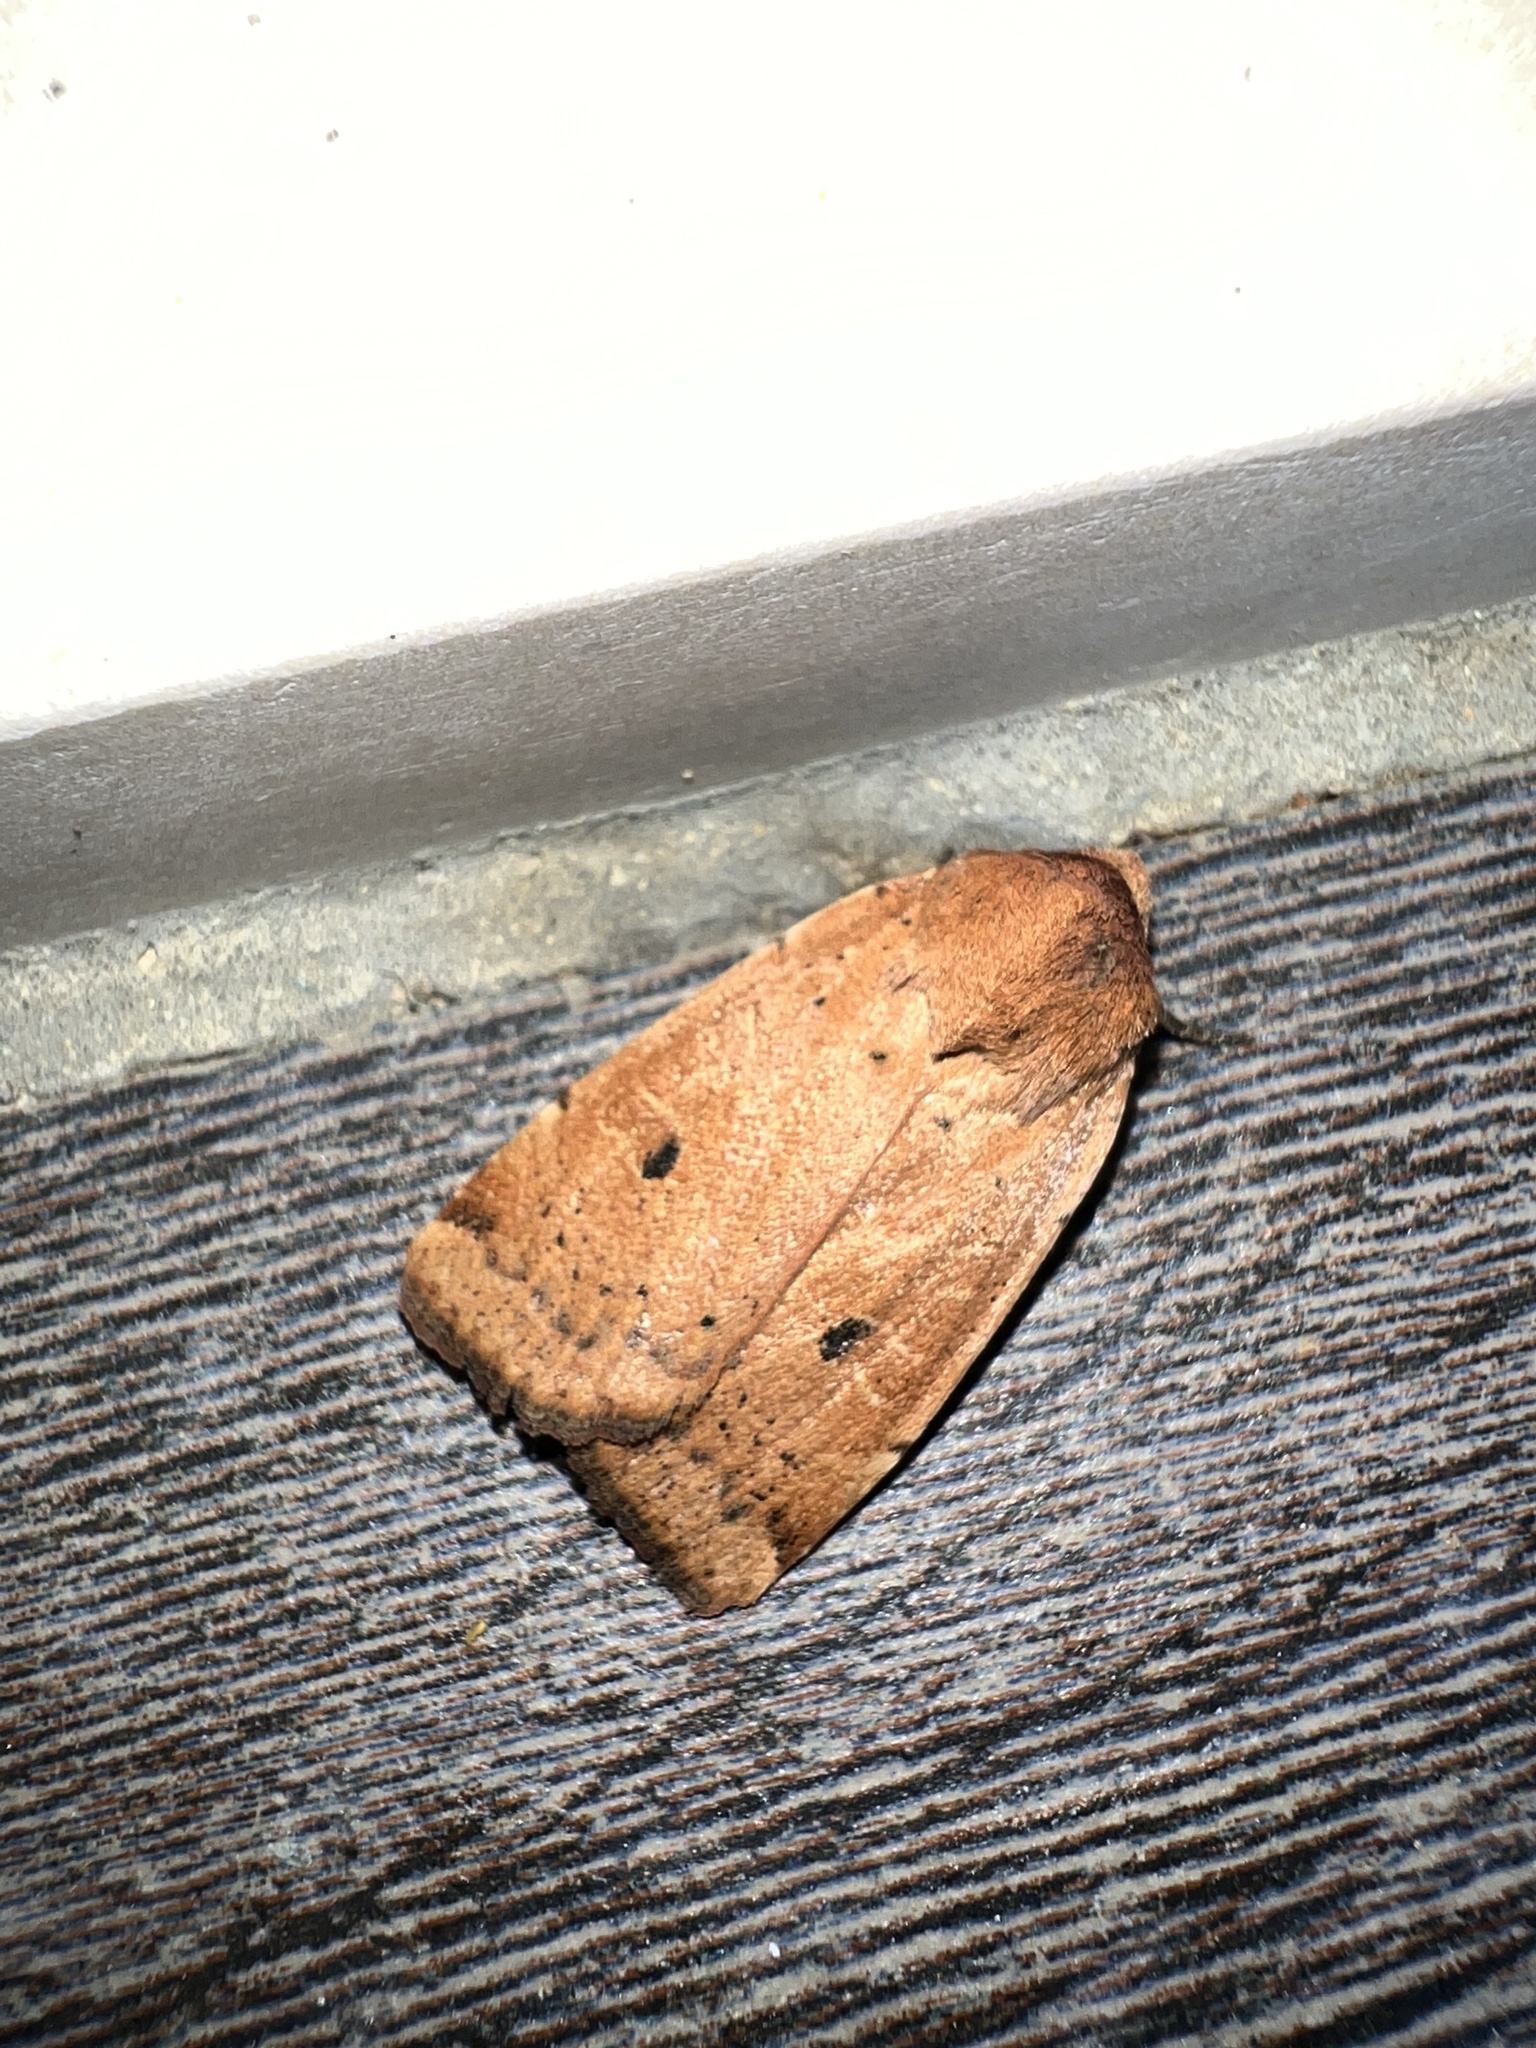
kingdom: Animalia
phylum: Arthropoda
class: Insecta
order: Lepidoptera
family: Noctuidae
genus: Noctua
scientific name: Noctua comes
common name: Lesser yellow underwing
